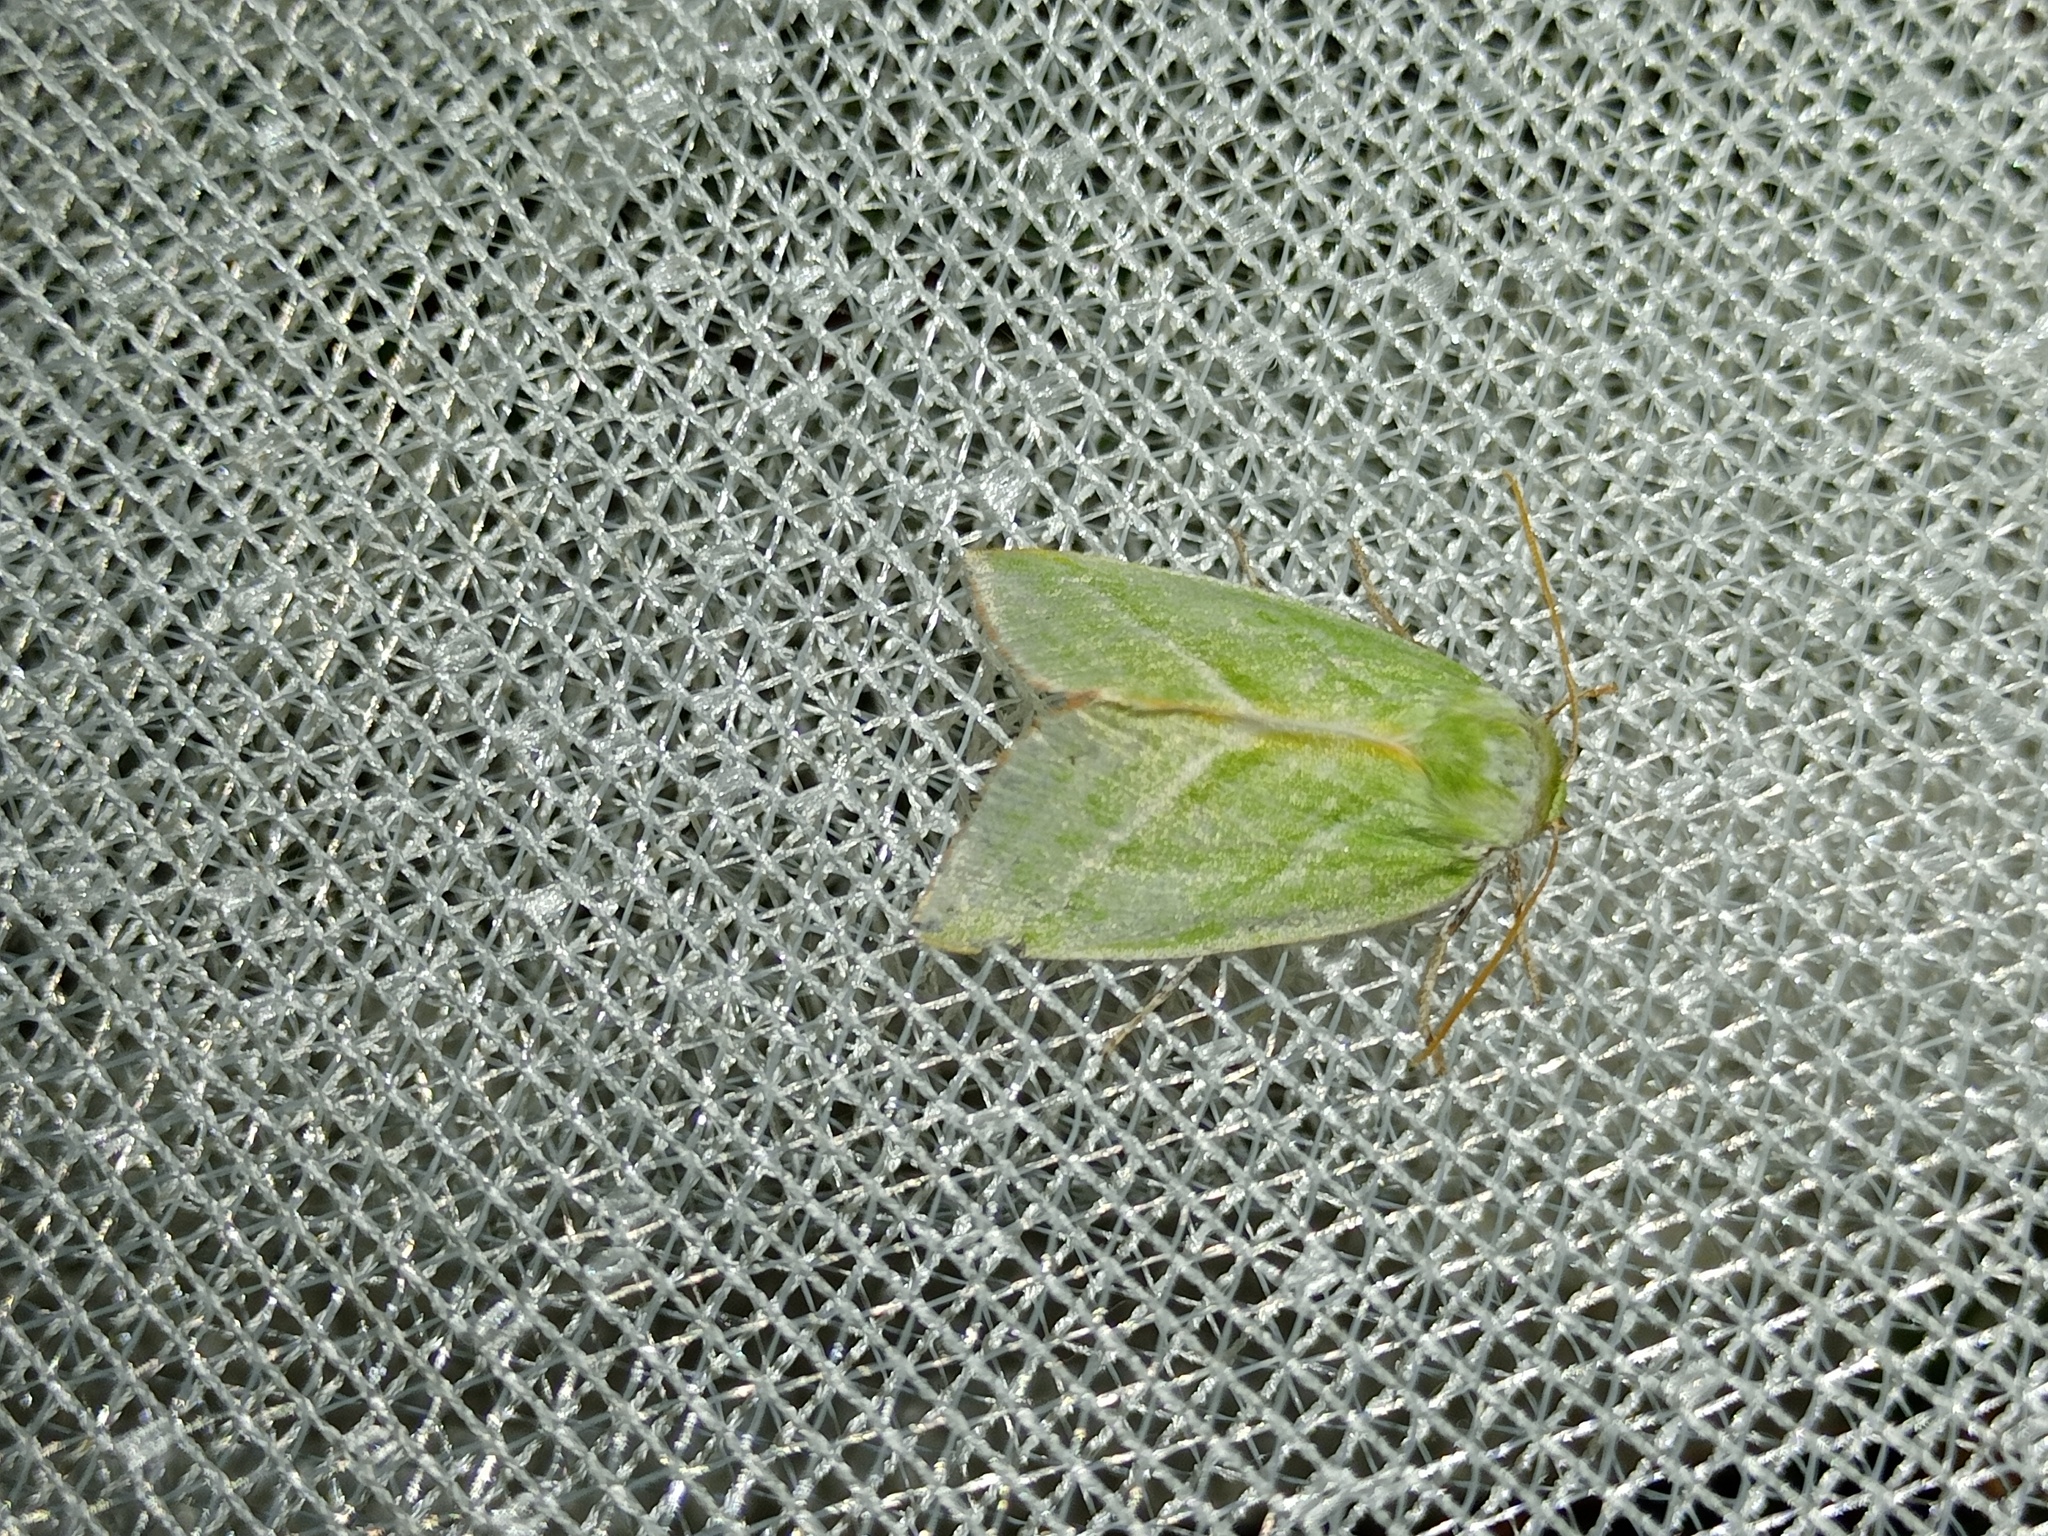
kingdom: Animalia
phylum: Arthropoda
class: Insecta
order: Lepidoptera
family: Nolidae
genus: Pseudoips
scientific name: Pseudoips prasinana
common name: Green silver-lines
